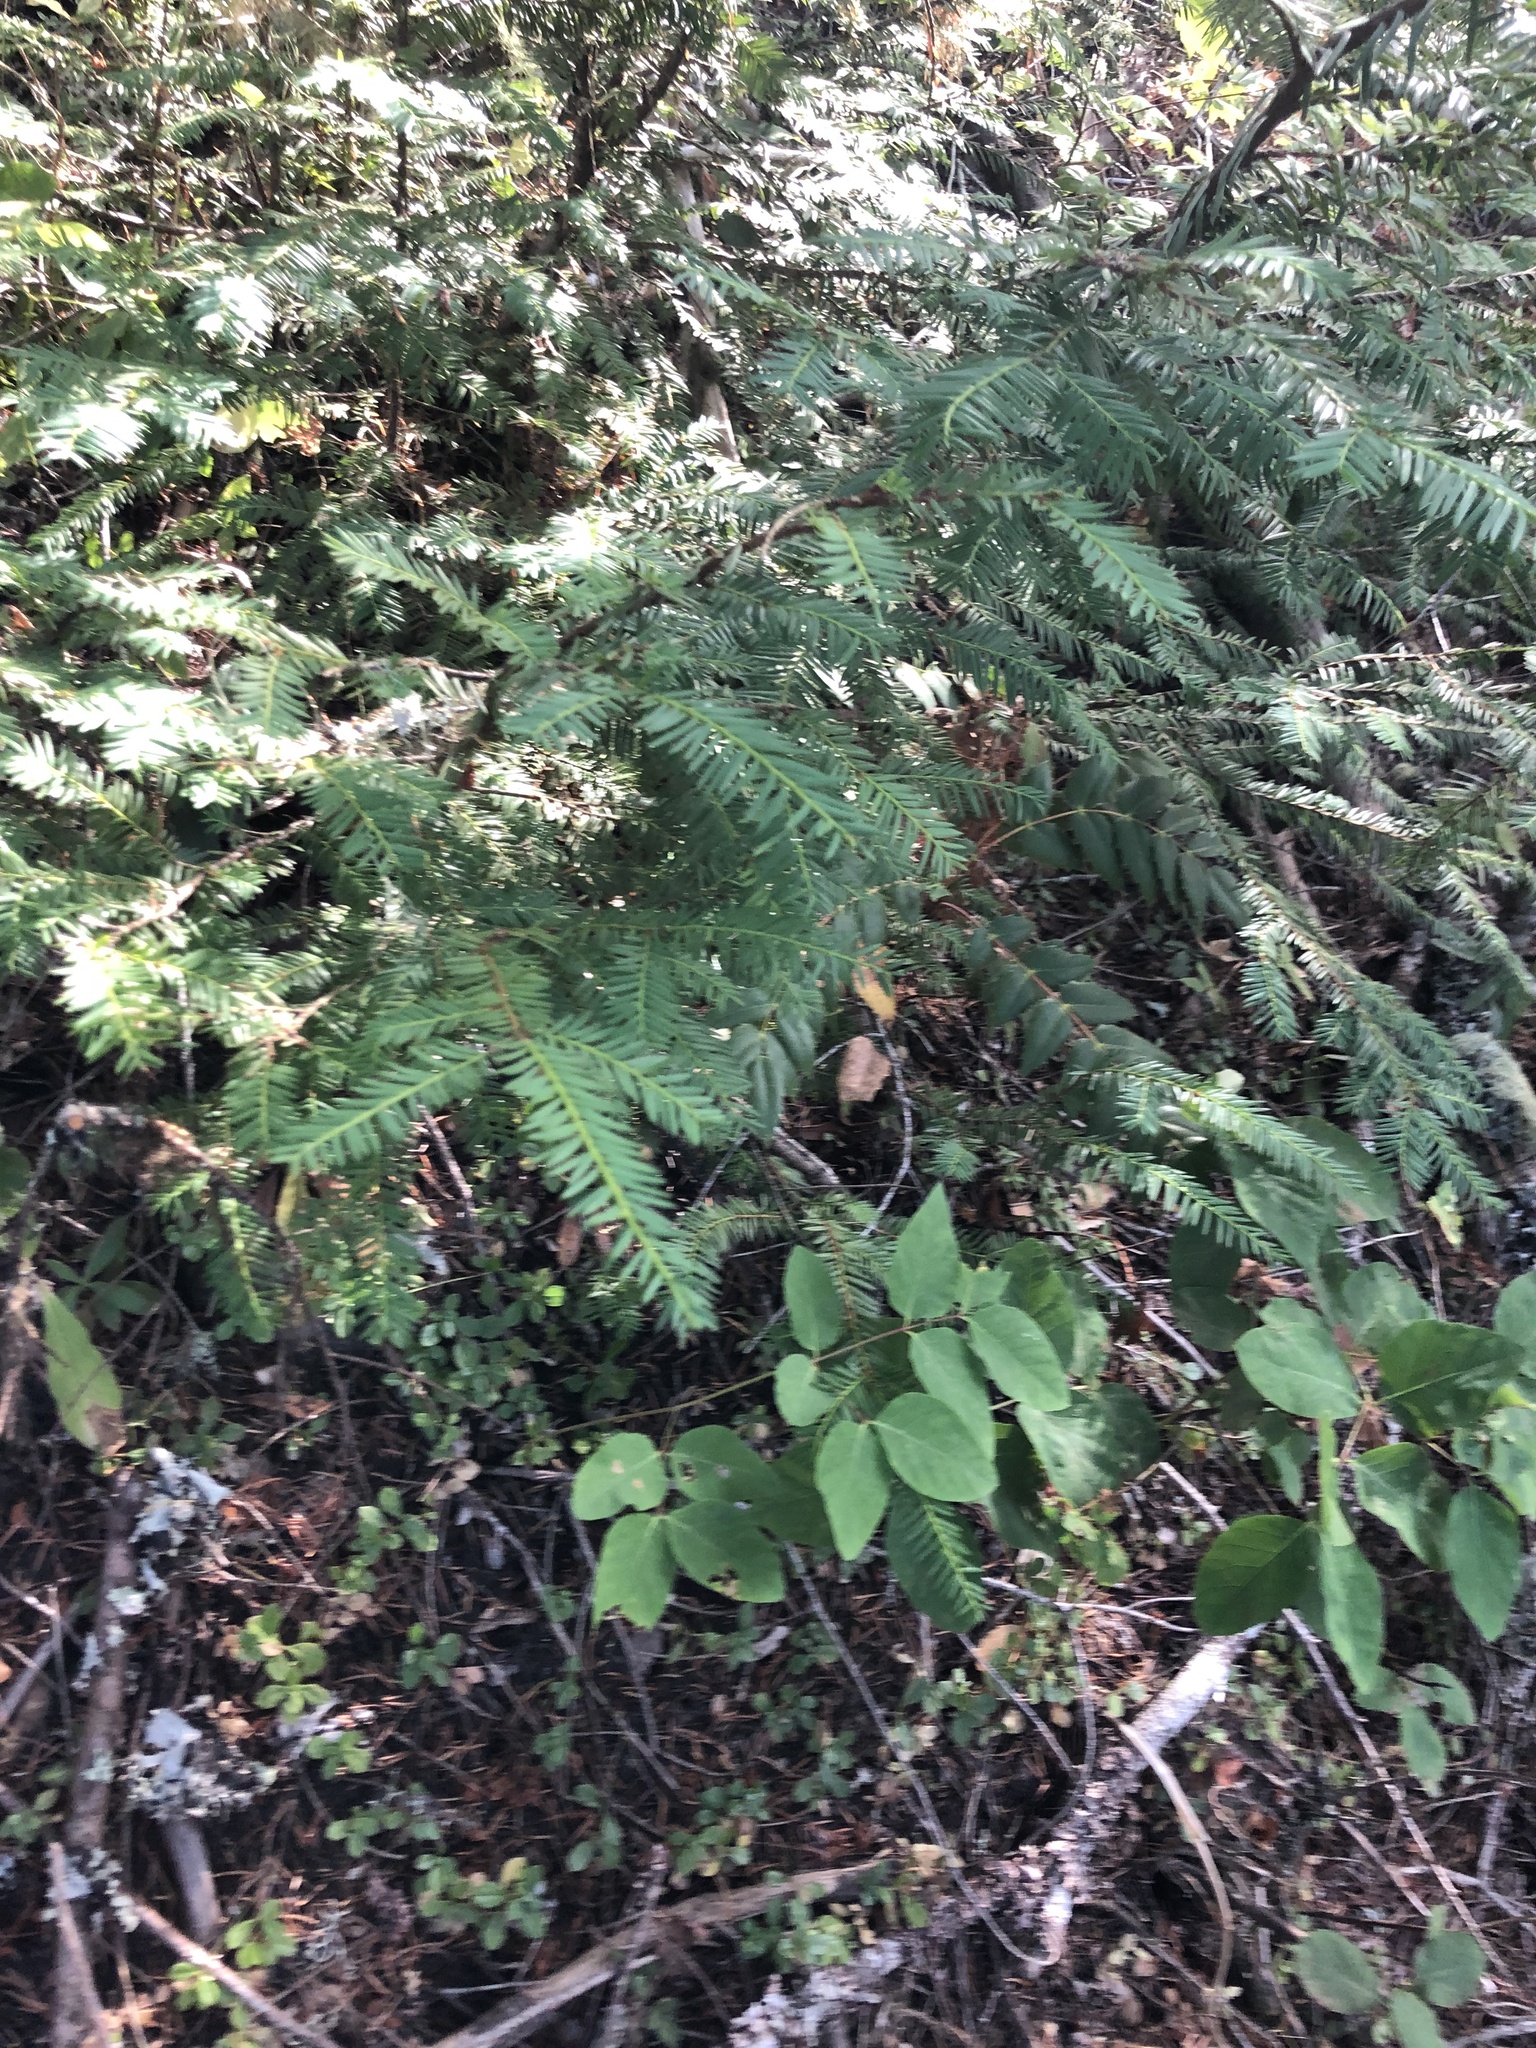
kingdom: Plantae
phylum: Tracheophyta
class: Pinopsida
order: Pinales
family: Taxaceae
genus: Taxus
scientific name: Taxus brevifolia
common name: Pacific yew
